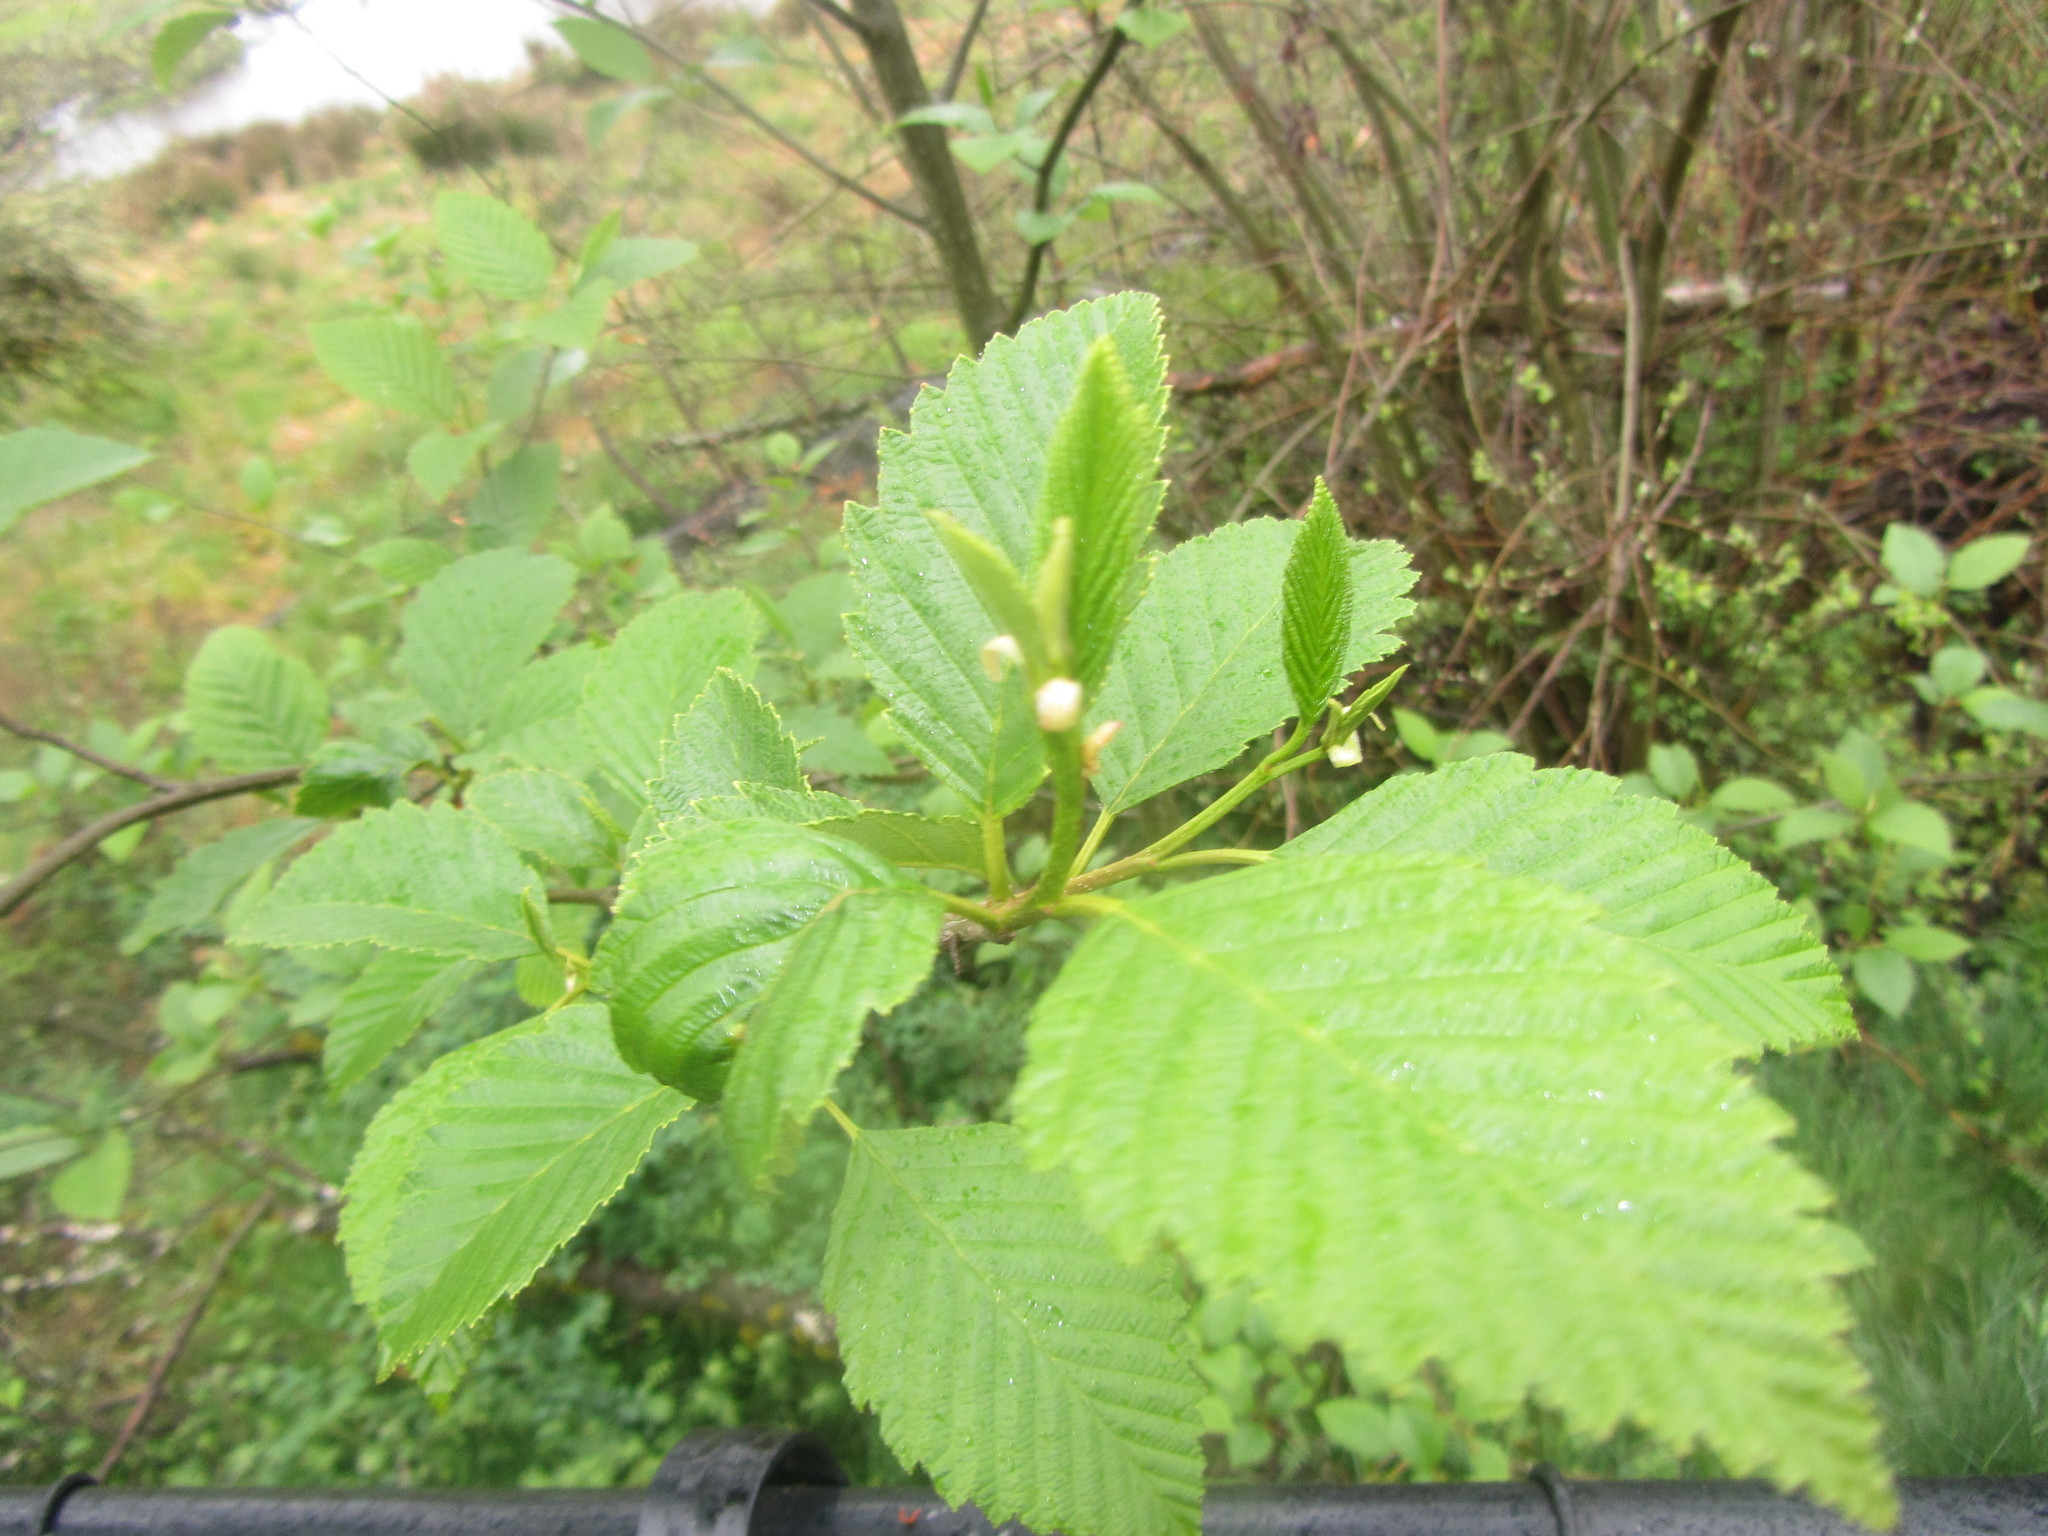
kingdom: Plantae
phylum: Tracheophyta
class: Magnoliopsida
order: Fagales
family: Betulaceae
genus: Alnus
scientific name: Alnus rubra
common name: Red alder
